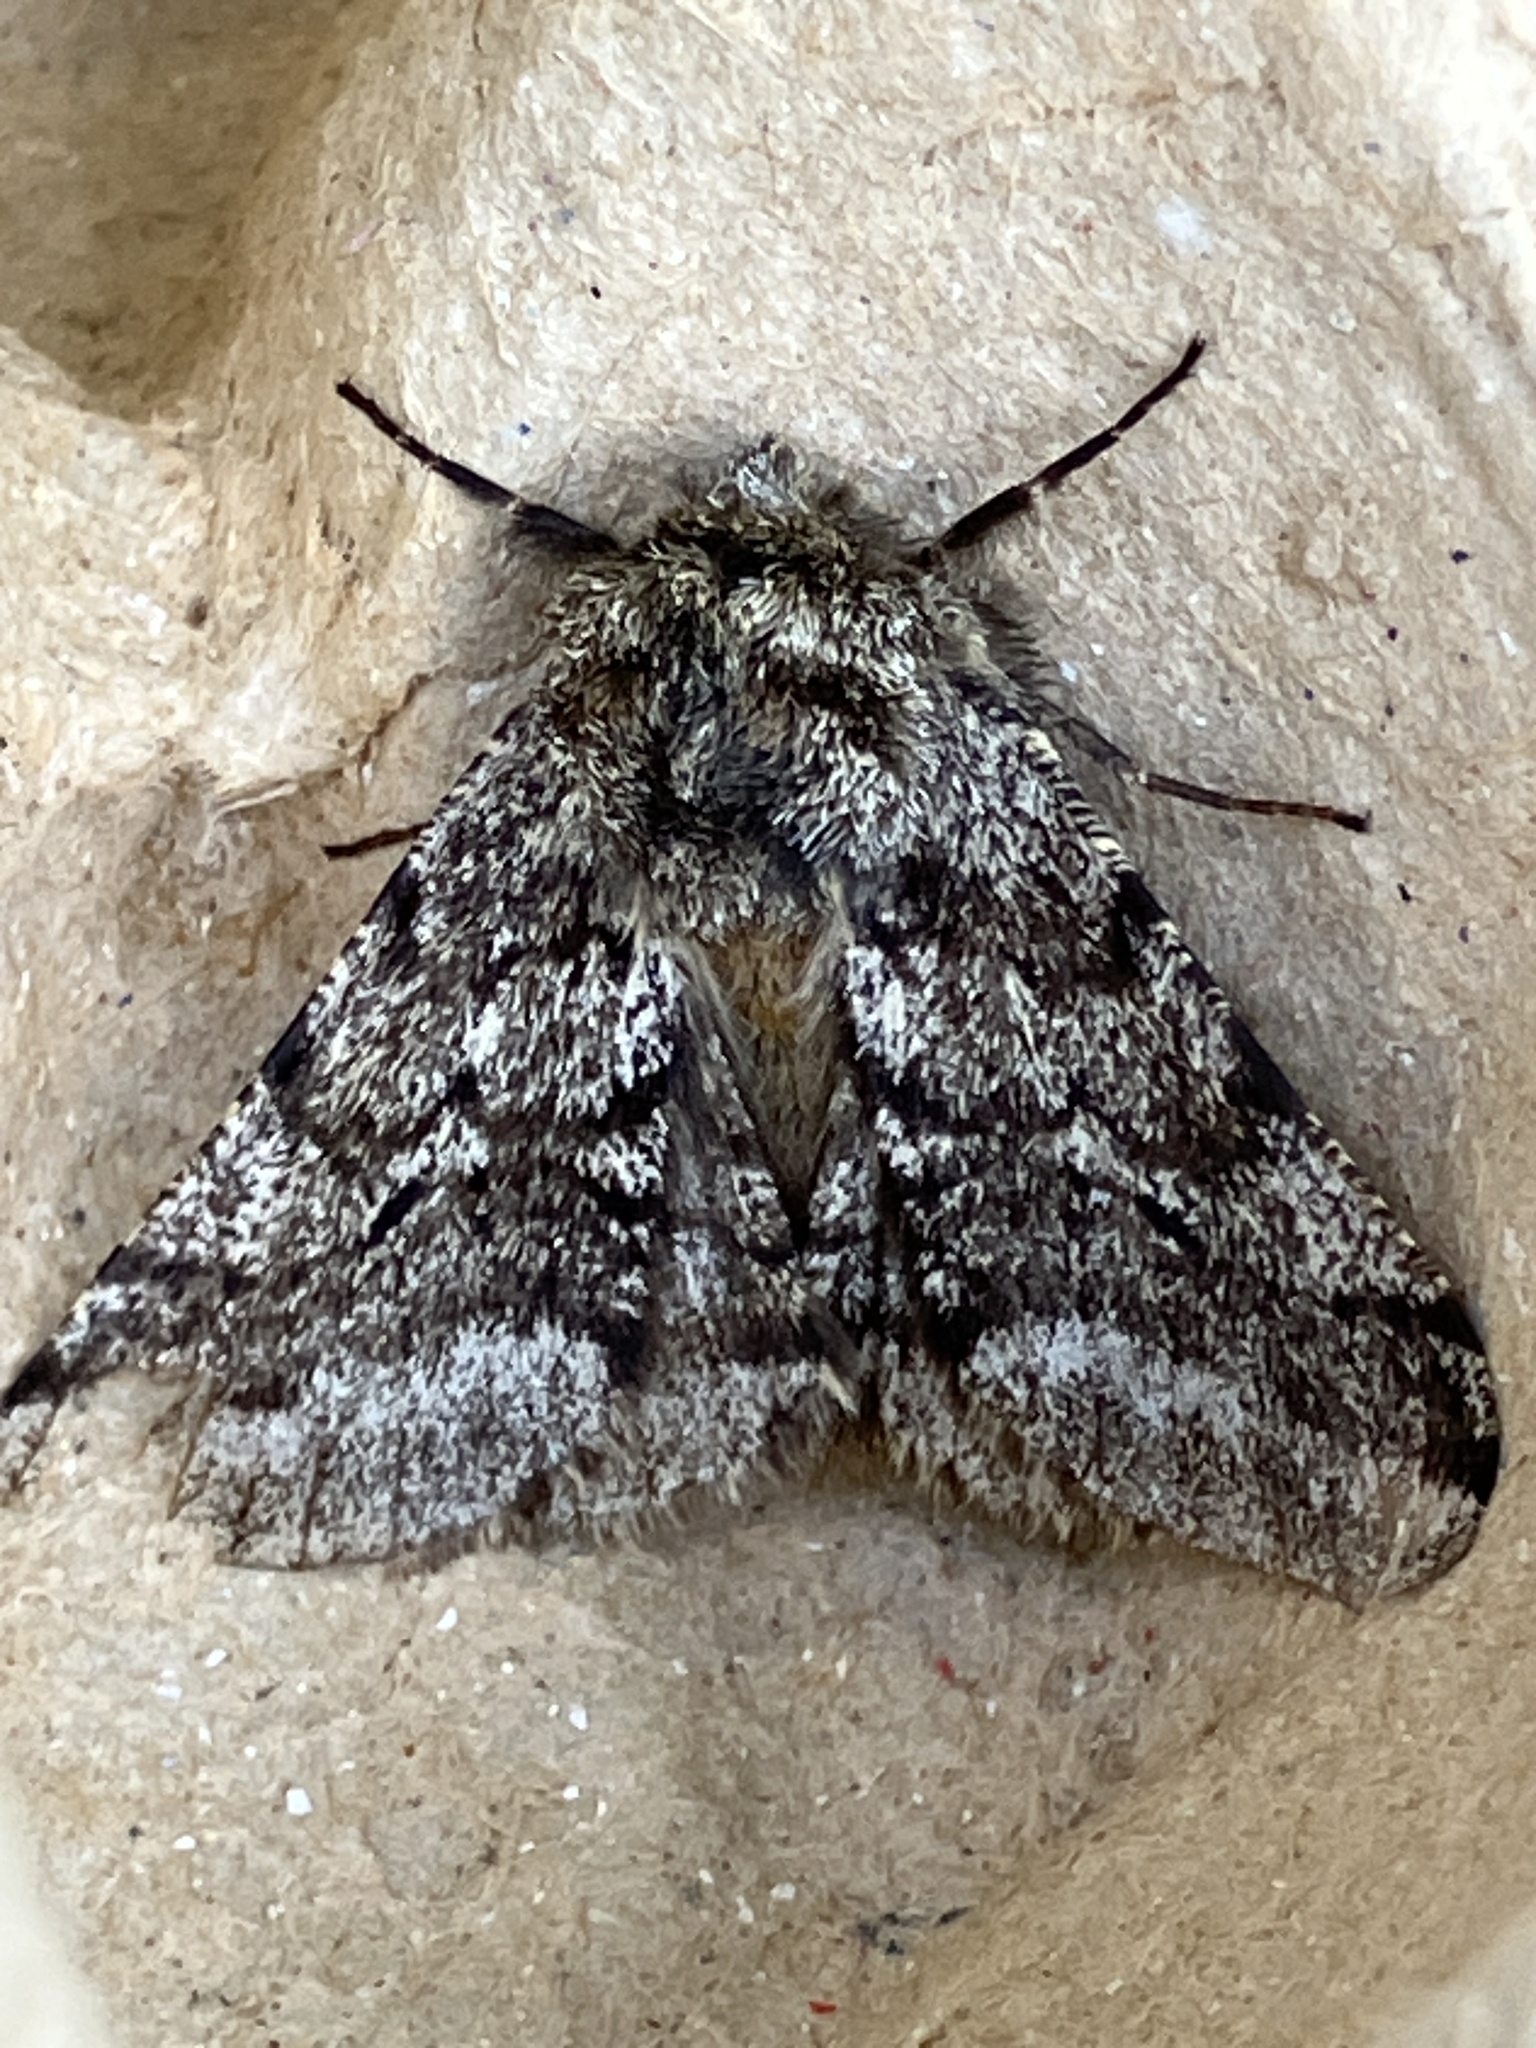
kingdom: Animalia
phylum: Arthropoda
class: Insecta
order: Lepidoptera
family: Geometridae
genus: Lycia
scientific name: Lycia hirtaria
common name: Brindled beauty
